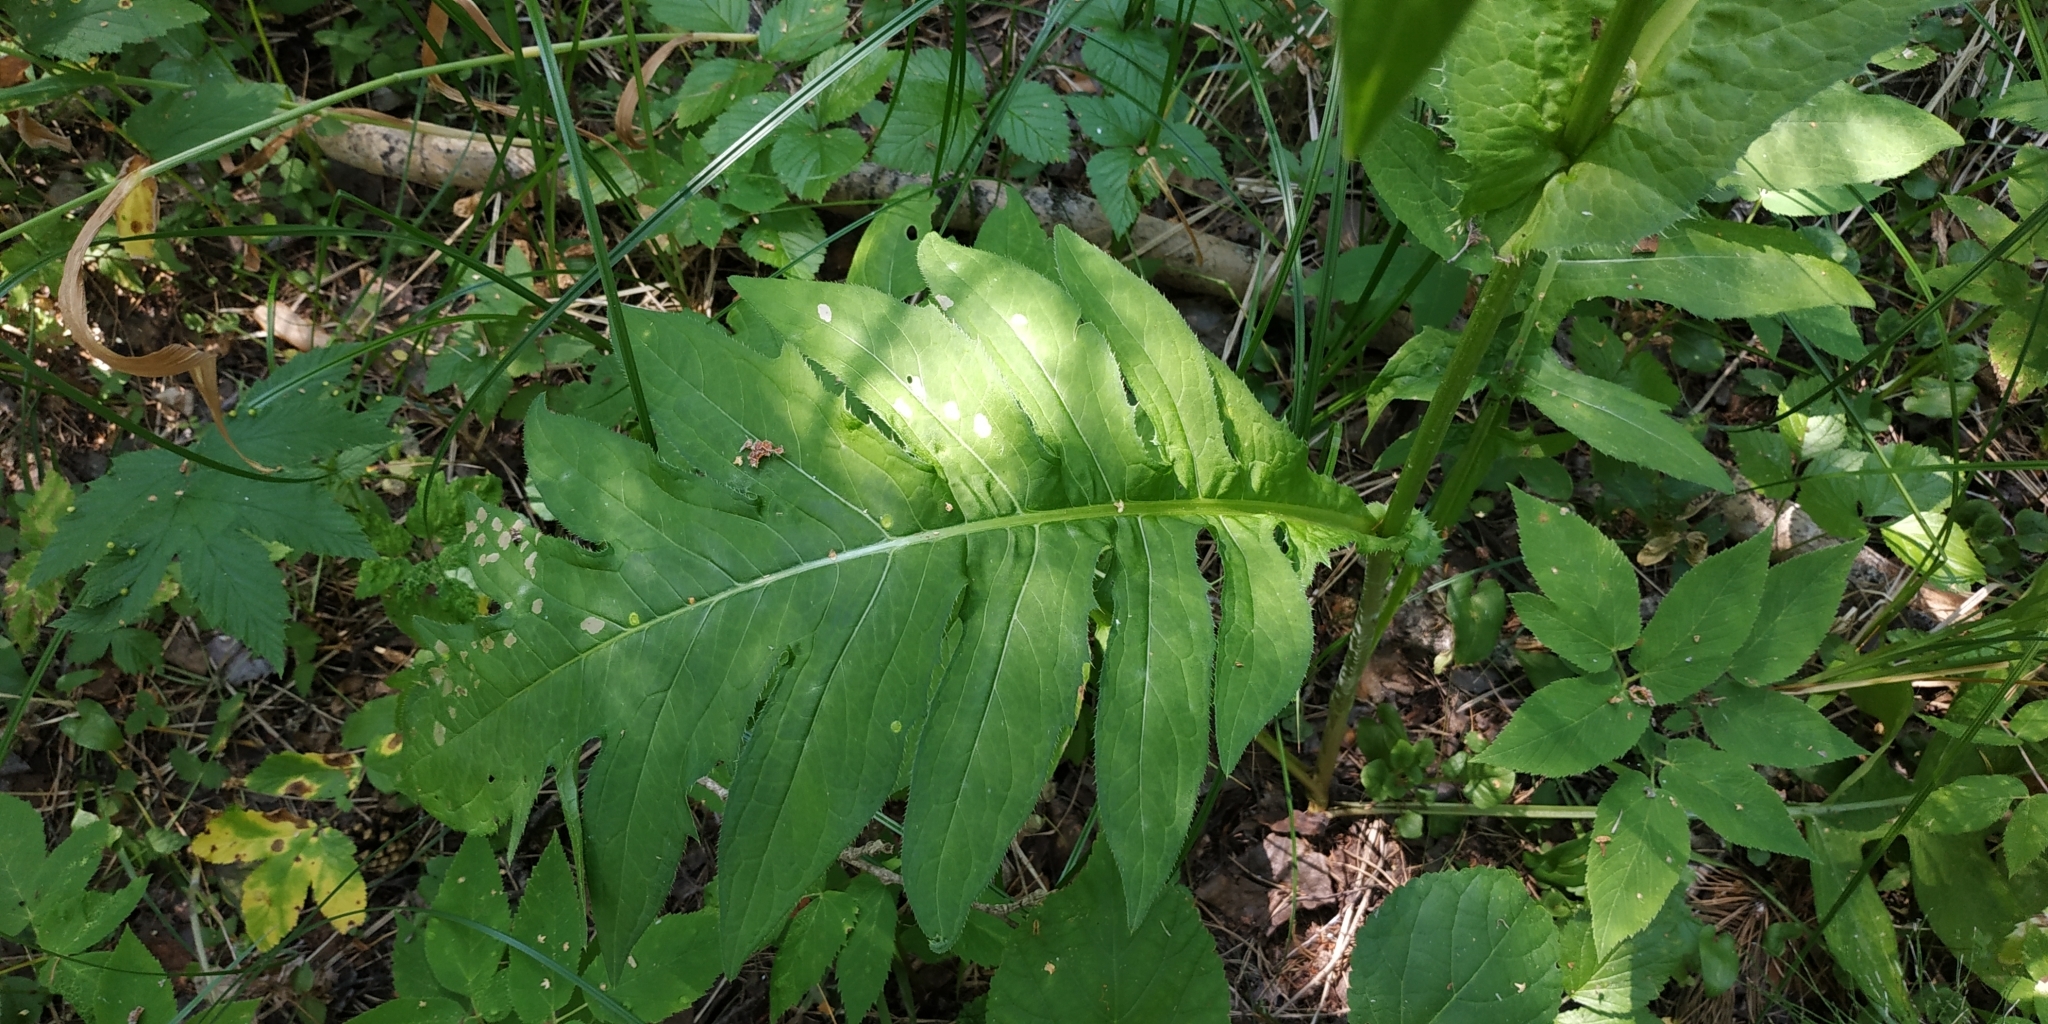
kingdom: Plantae
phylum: Tracheophyta
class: Magnoliopsida
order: Asterales
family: Asteraceae
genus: Cirsium
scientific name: Cirsium oleraceum
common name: Cabbage thistle
